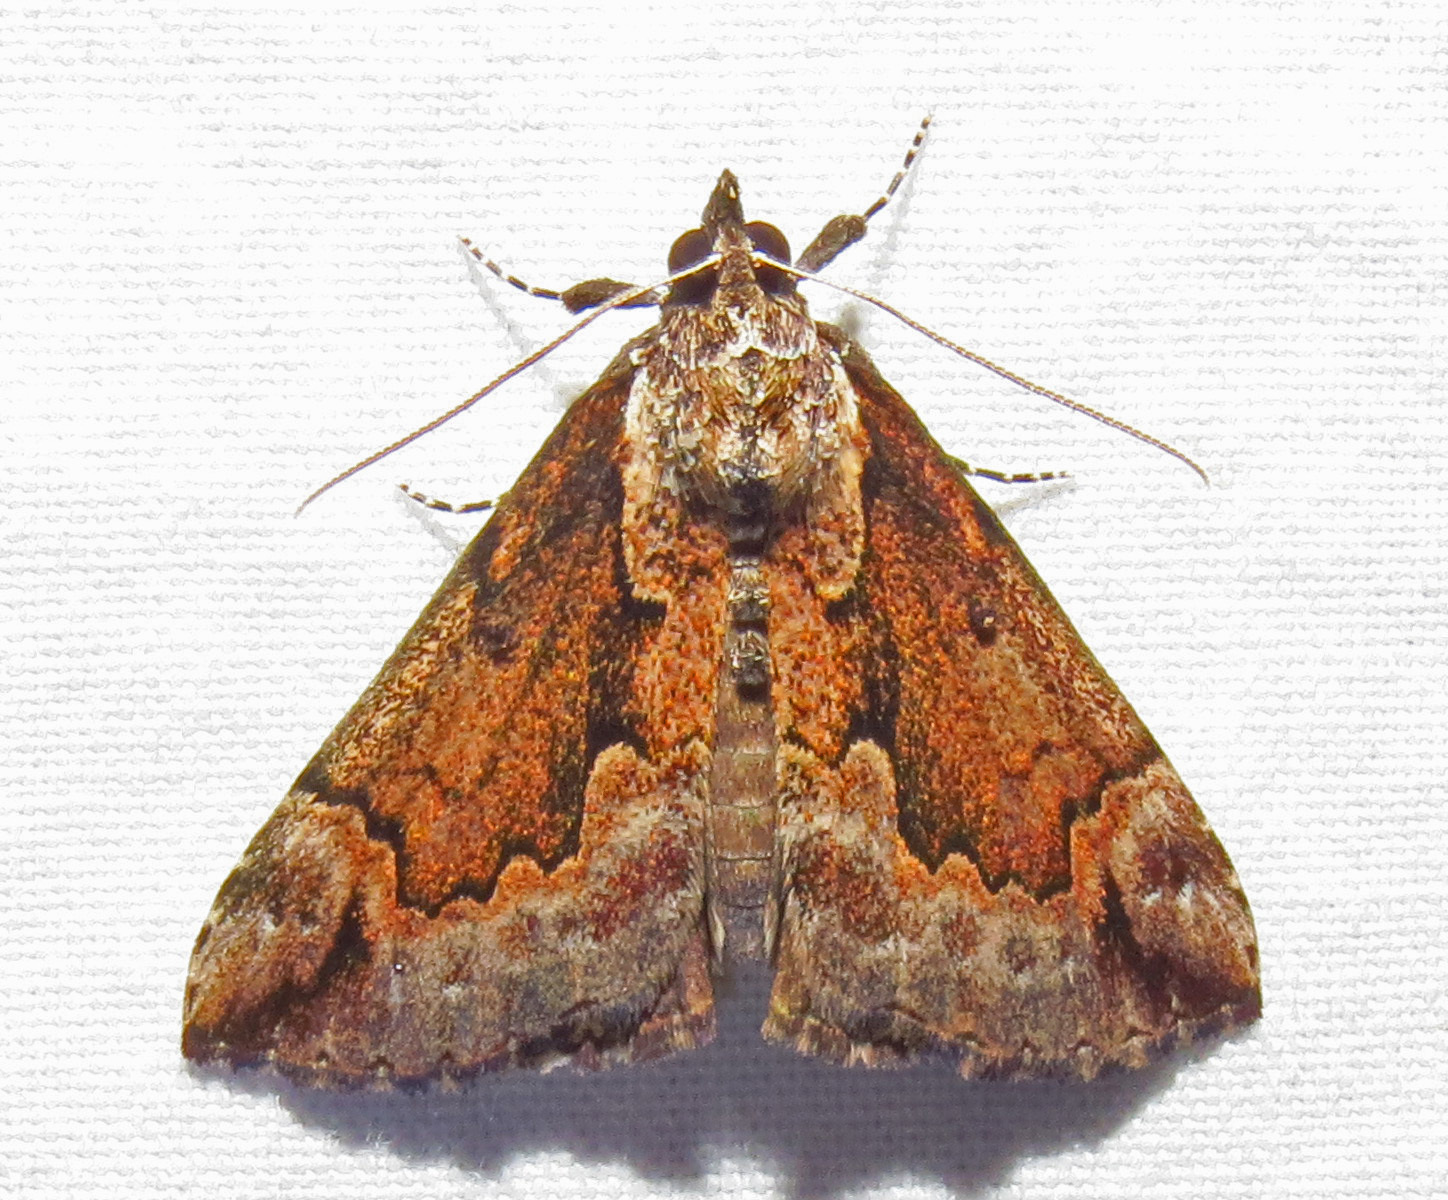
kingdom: Animalia
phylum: Arthropoda
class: Insecta
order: Lepidoptera
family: Erebidae
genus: Hypena
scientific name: Hypena baltimoralis
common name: Baltimore snout
